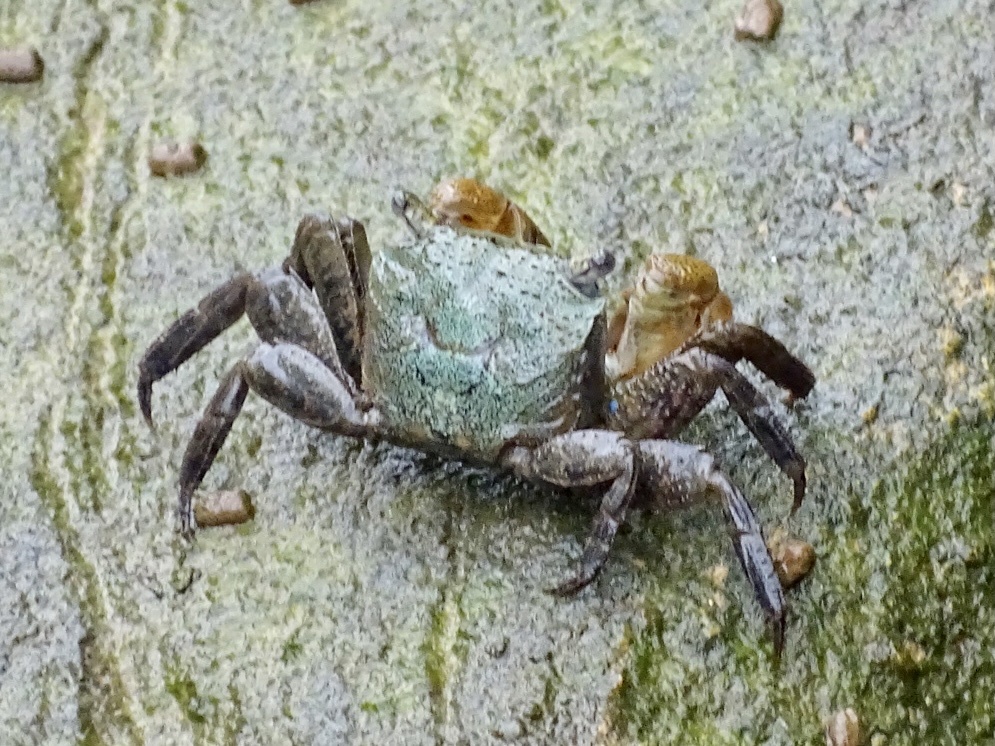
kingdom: Animalia
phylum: Arthropoda
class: Malacostraca
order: Decapoda
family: Sesarmidae
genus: Parasesarma
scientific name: Parasesarma bidens
